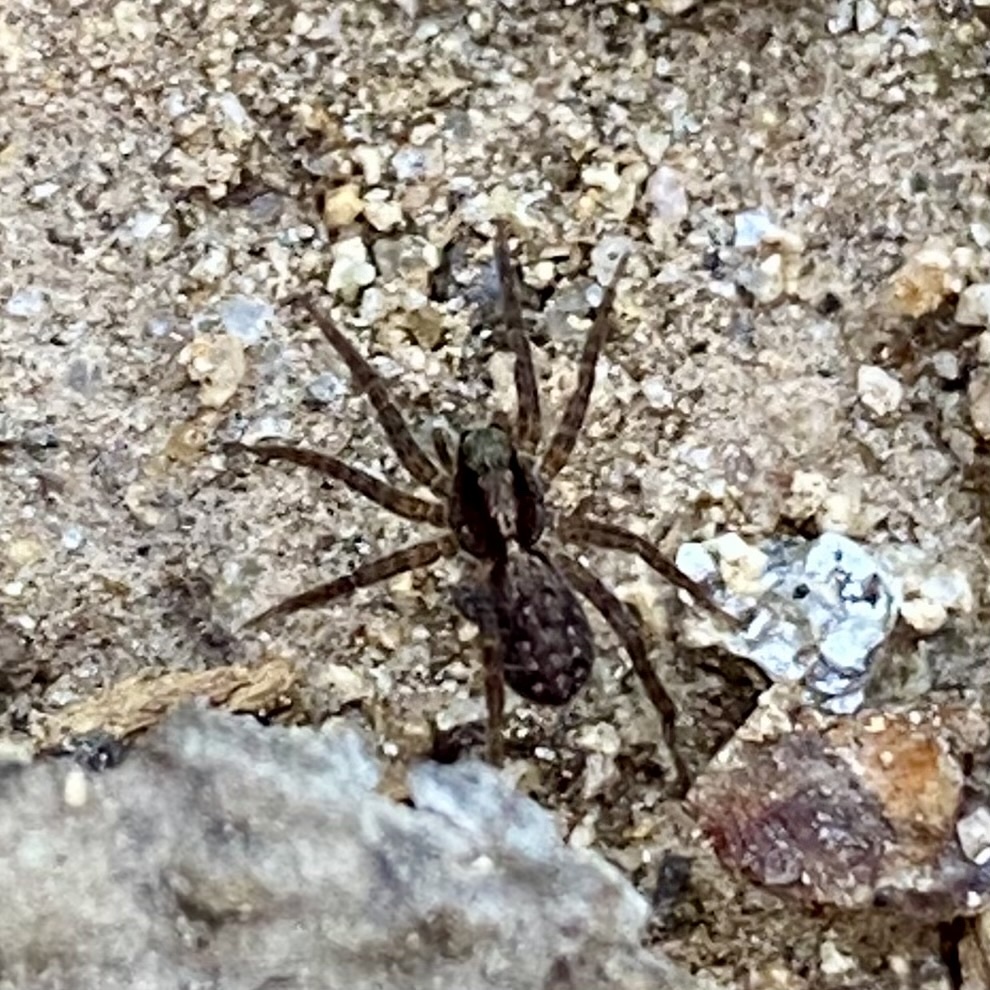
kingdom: Animalia
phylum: Arthropoda
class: Arachnida
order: Araneae
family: Lycosidae
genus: Pardosa
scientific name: Pardosa
